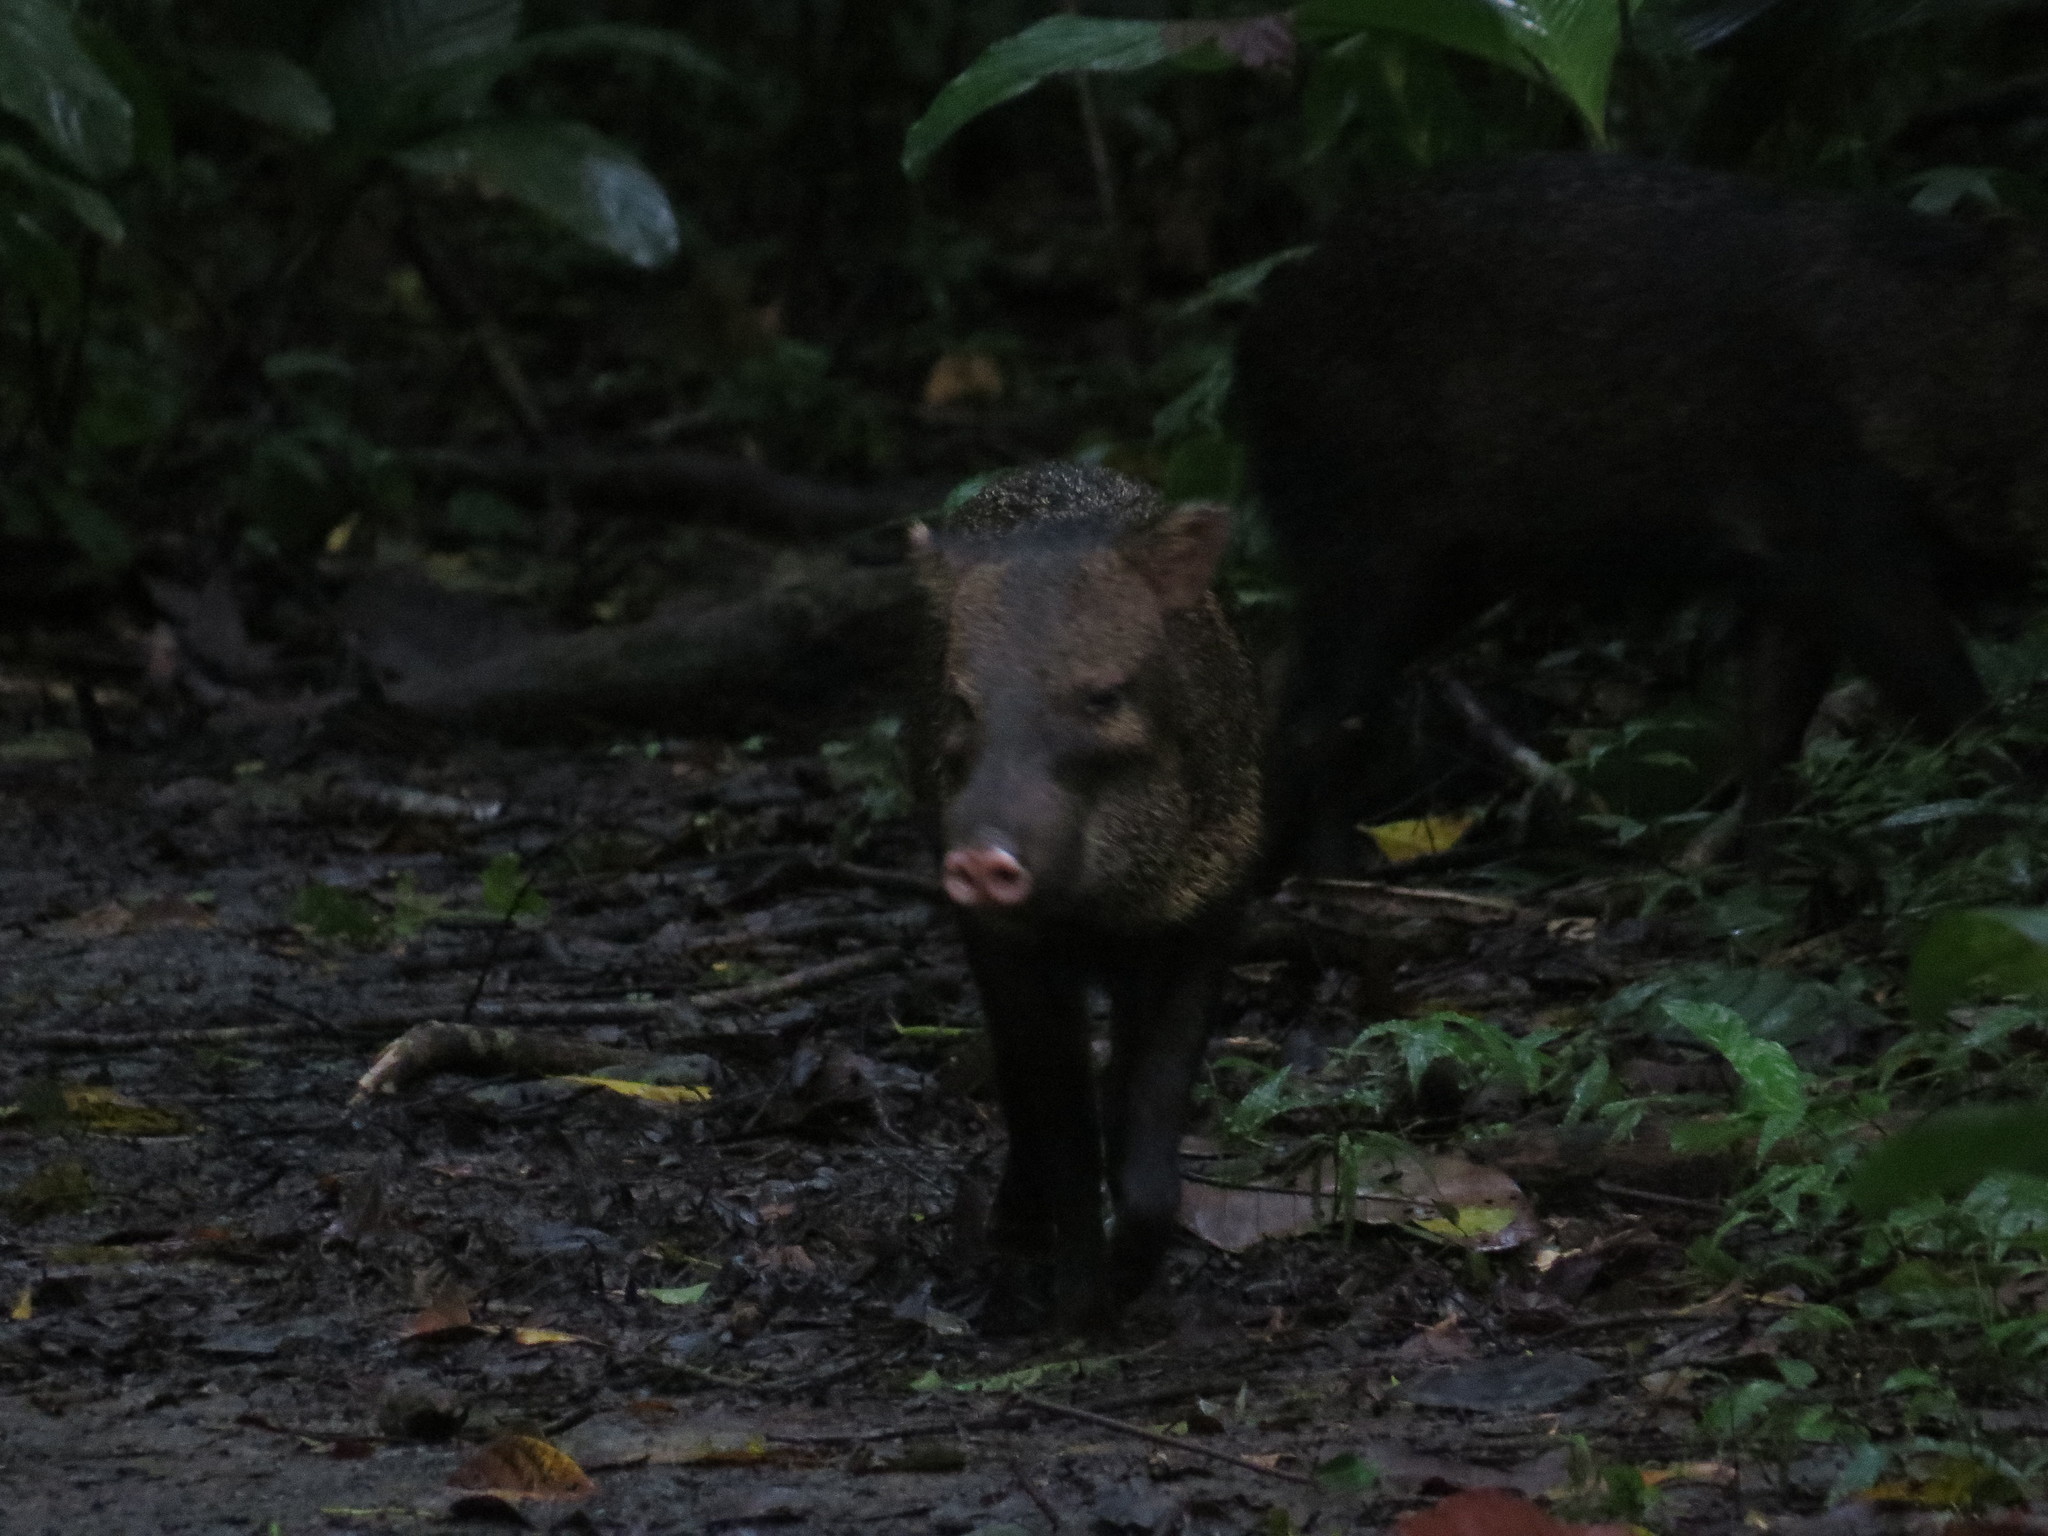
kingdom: Animalia
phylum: Chordata
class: Mammalia
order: Artiodactyla
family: Tayassuidae
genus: Pecari
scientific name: Pecari tajacu
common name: Collared peccary
